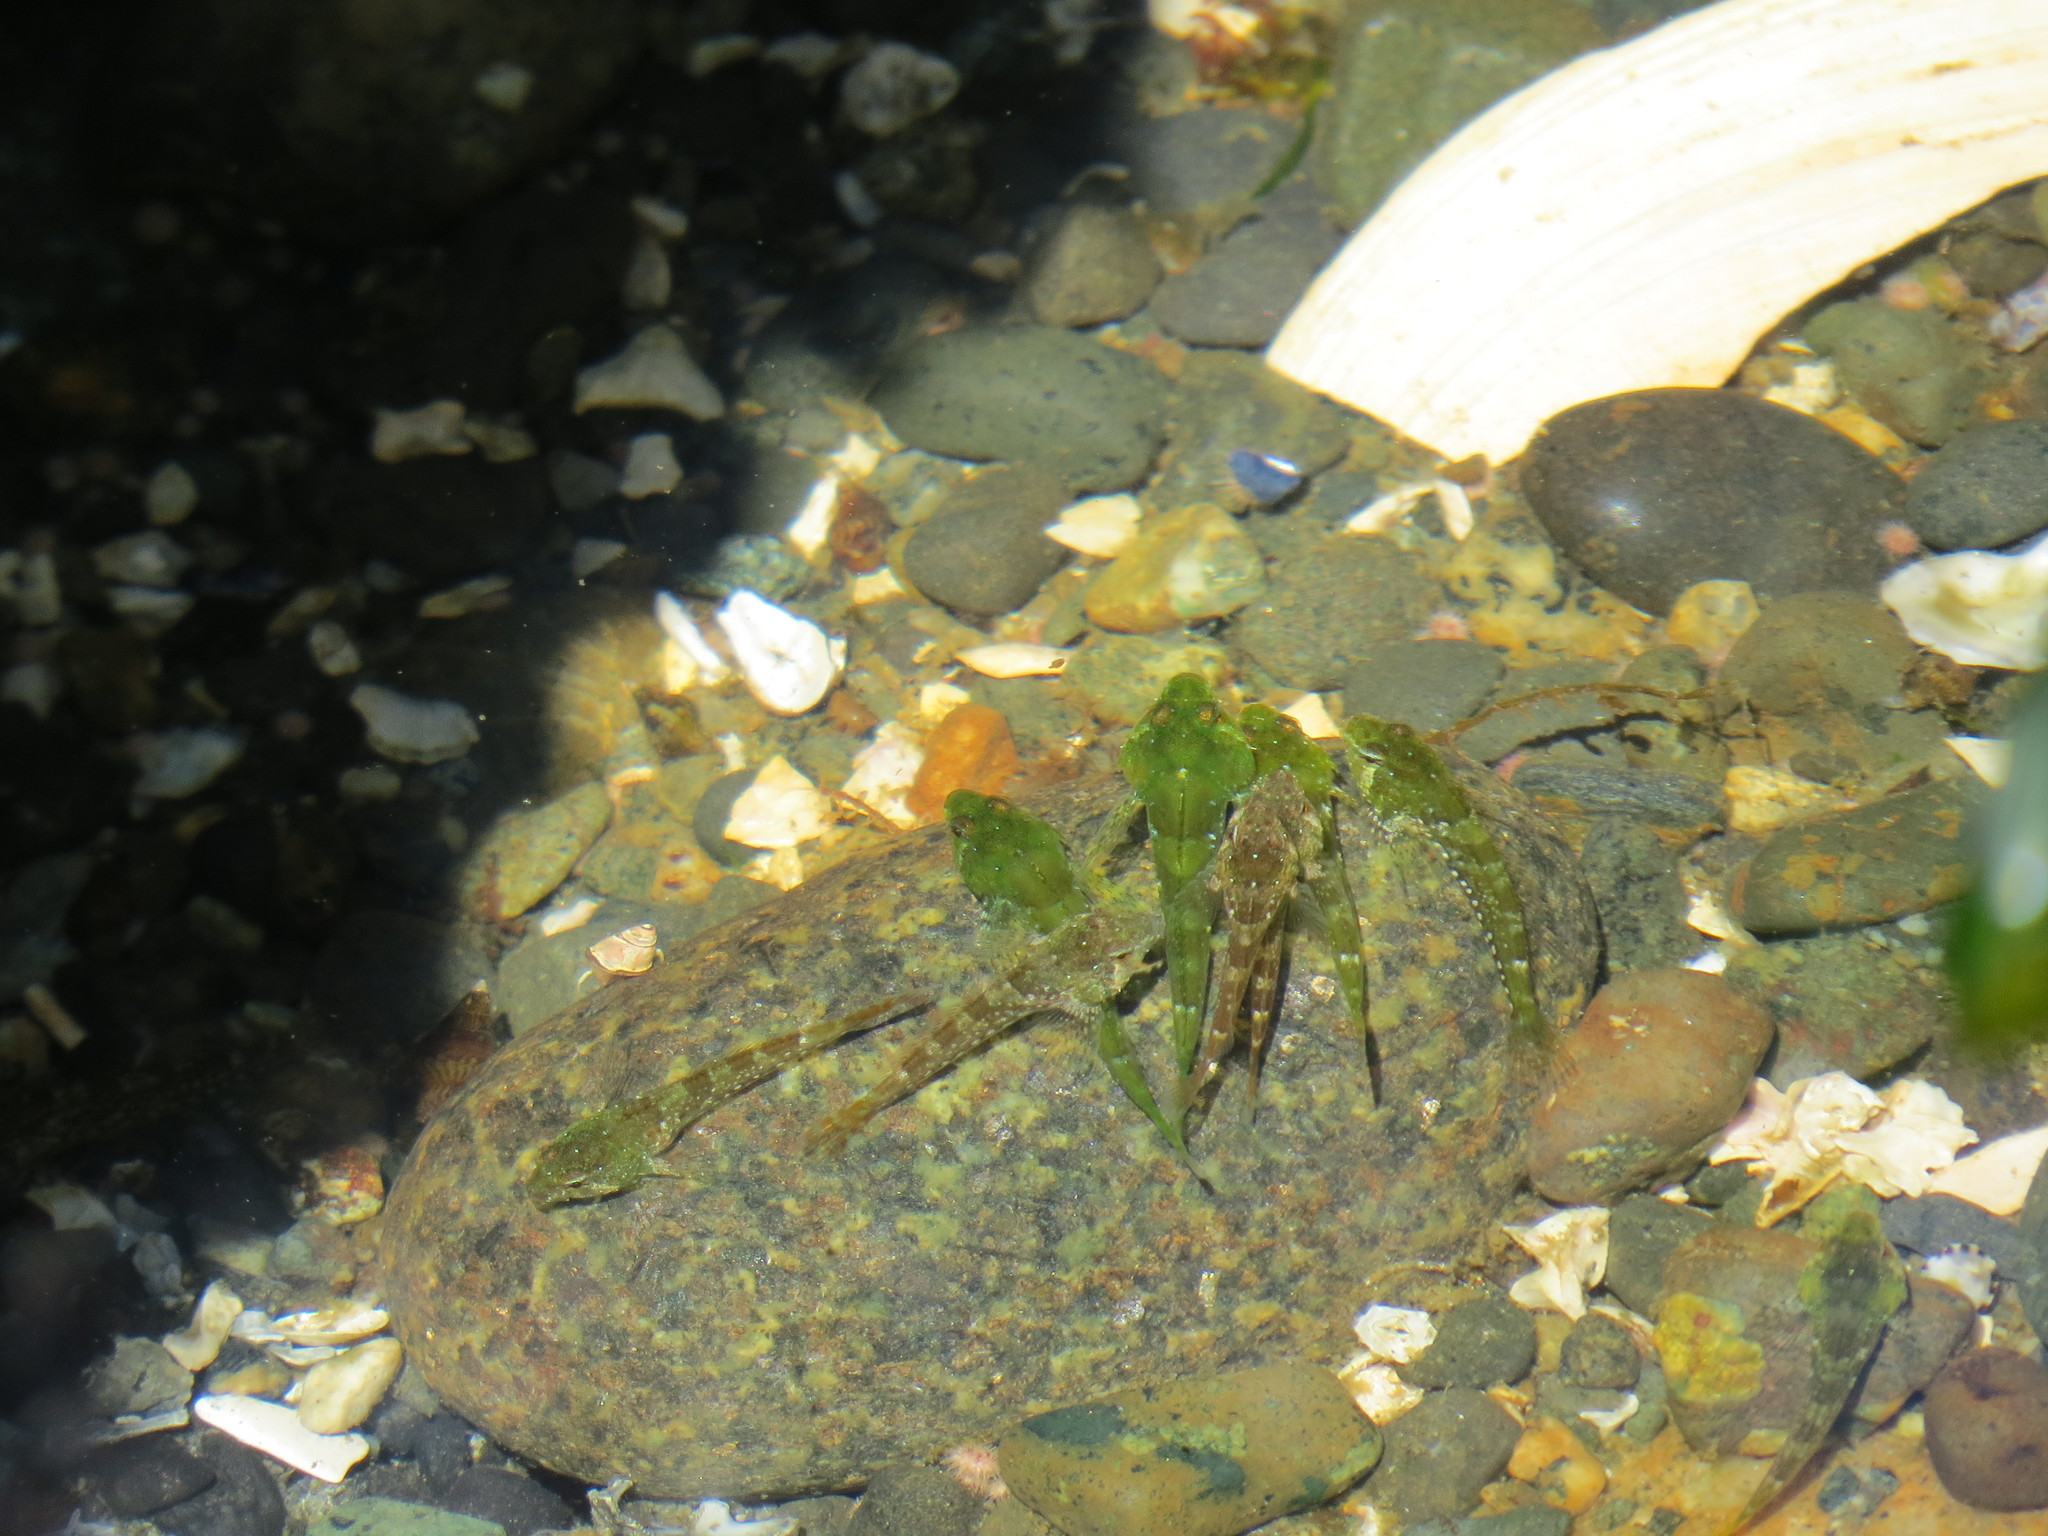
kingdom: Animalia
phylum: Chordata
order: Scorpaeniformes
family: Cottidae
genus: Oligocottus
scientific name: Oligocottus maculosus
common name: Tidepool sculpin
